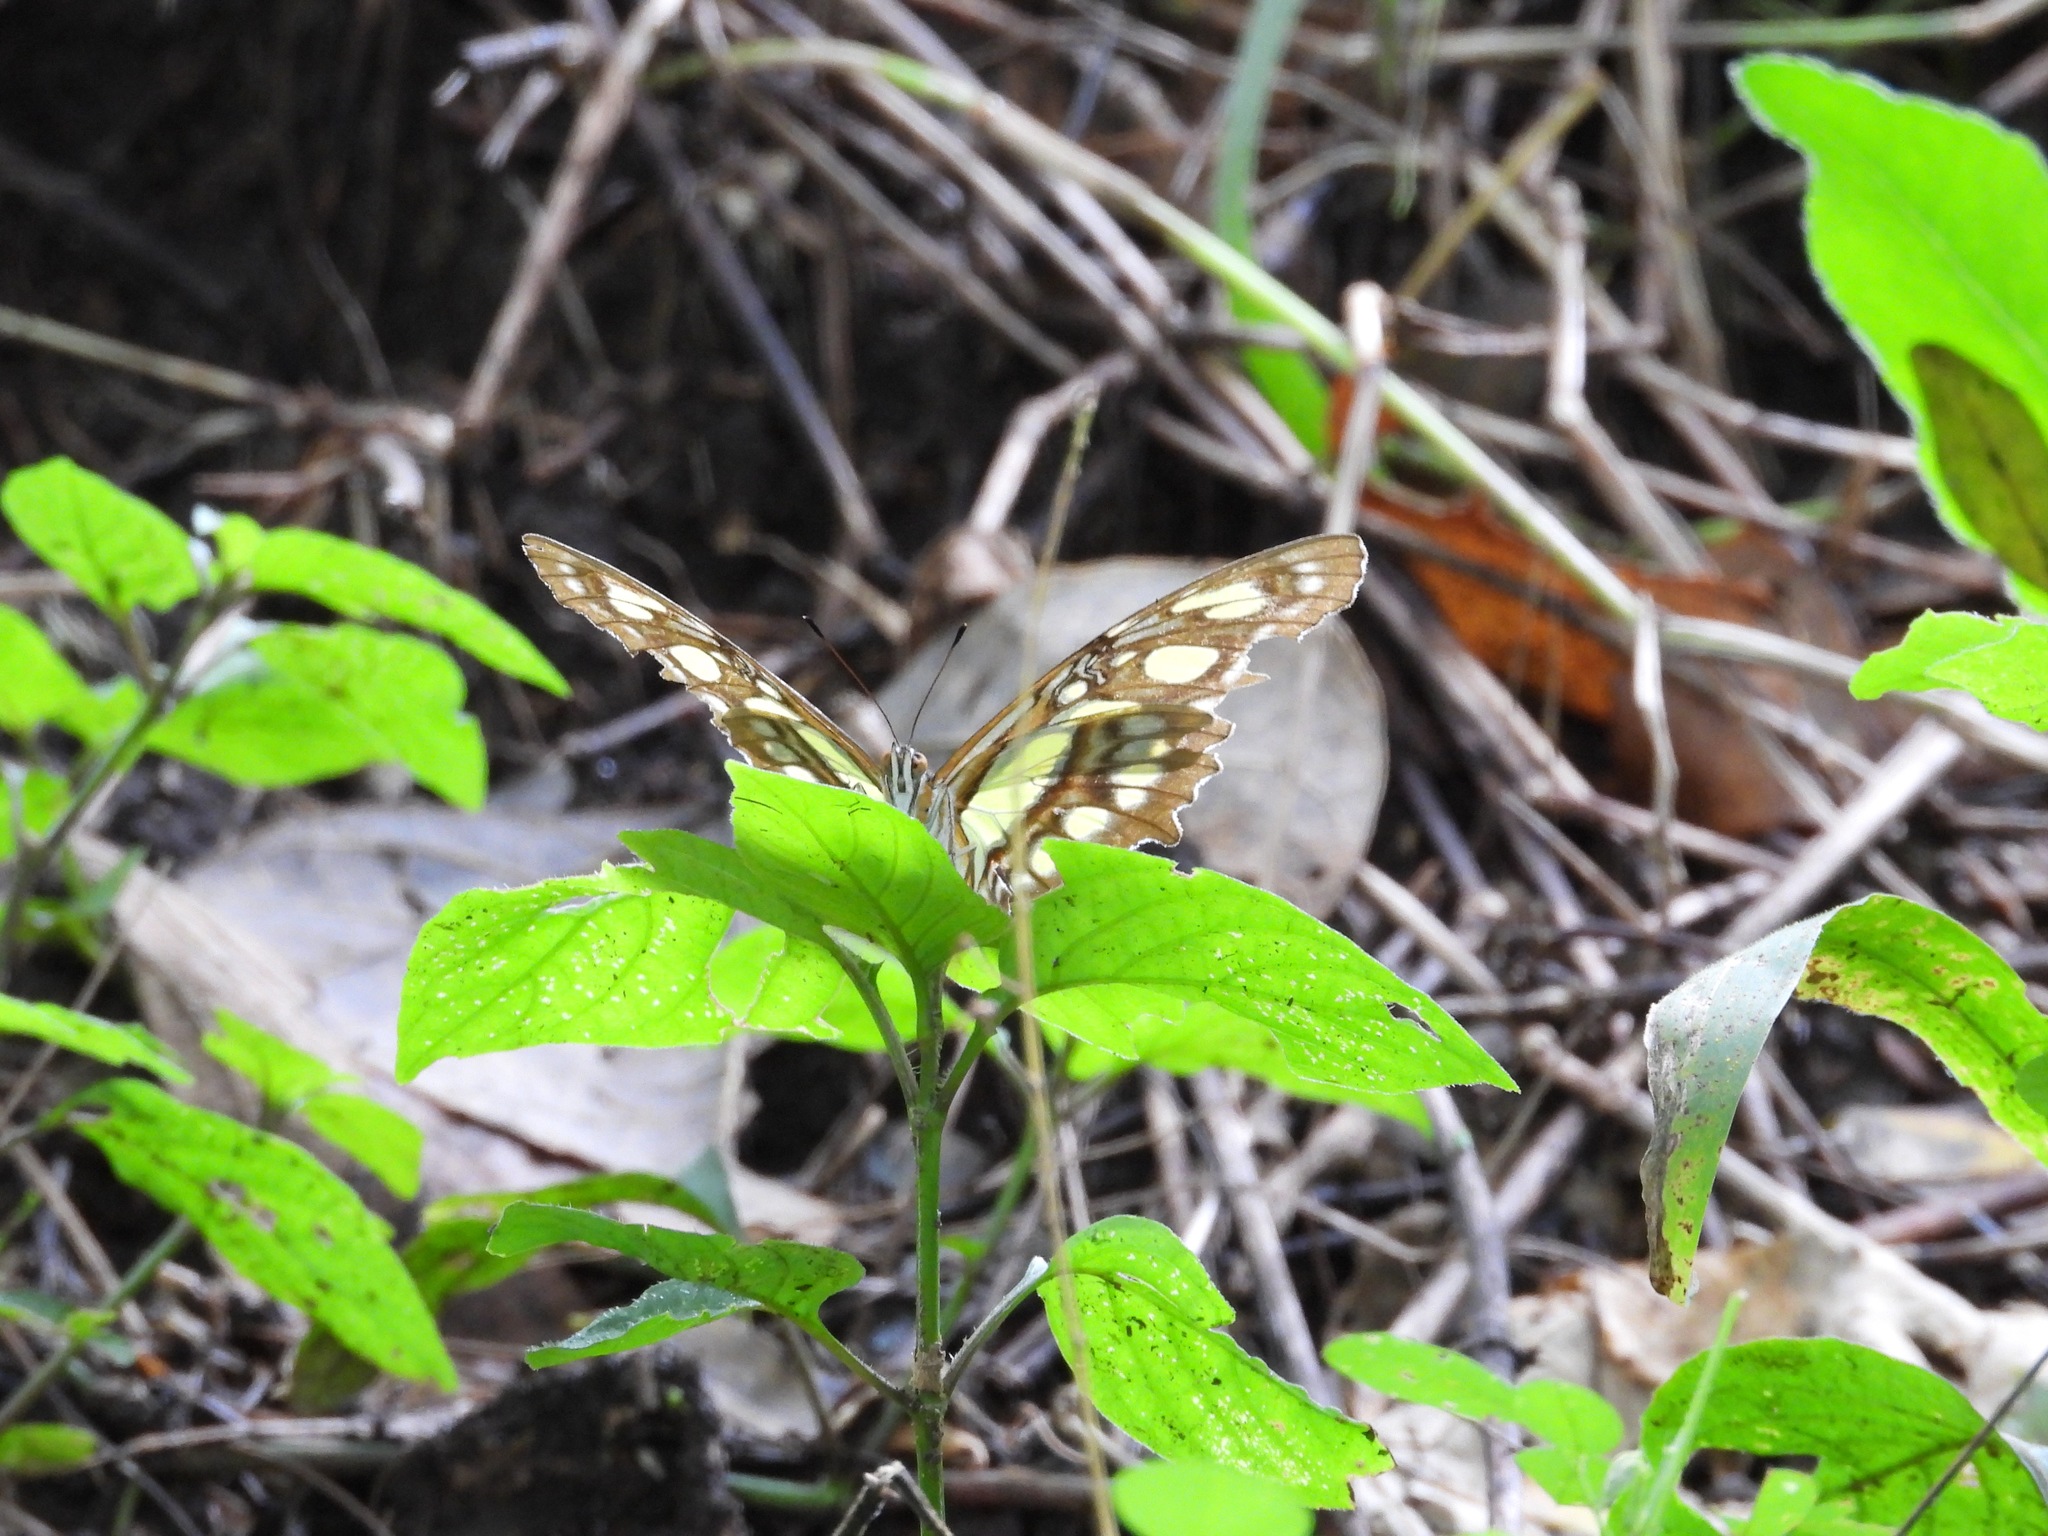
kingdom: Animalia
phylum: Arthropoda
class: Insecta
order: Lepidoptera
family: Nymphalidae
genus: Siproeta
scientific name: Siproeta stelenes
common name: Malachite
